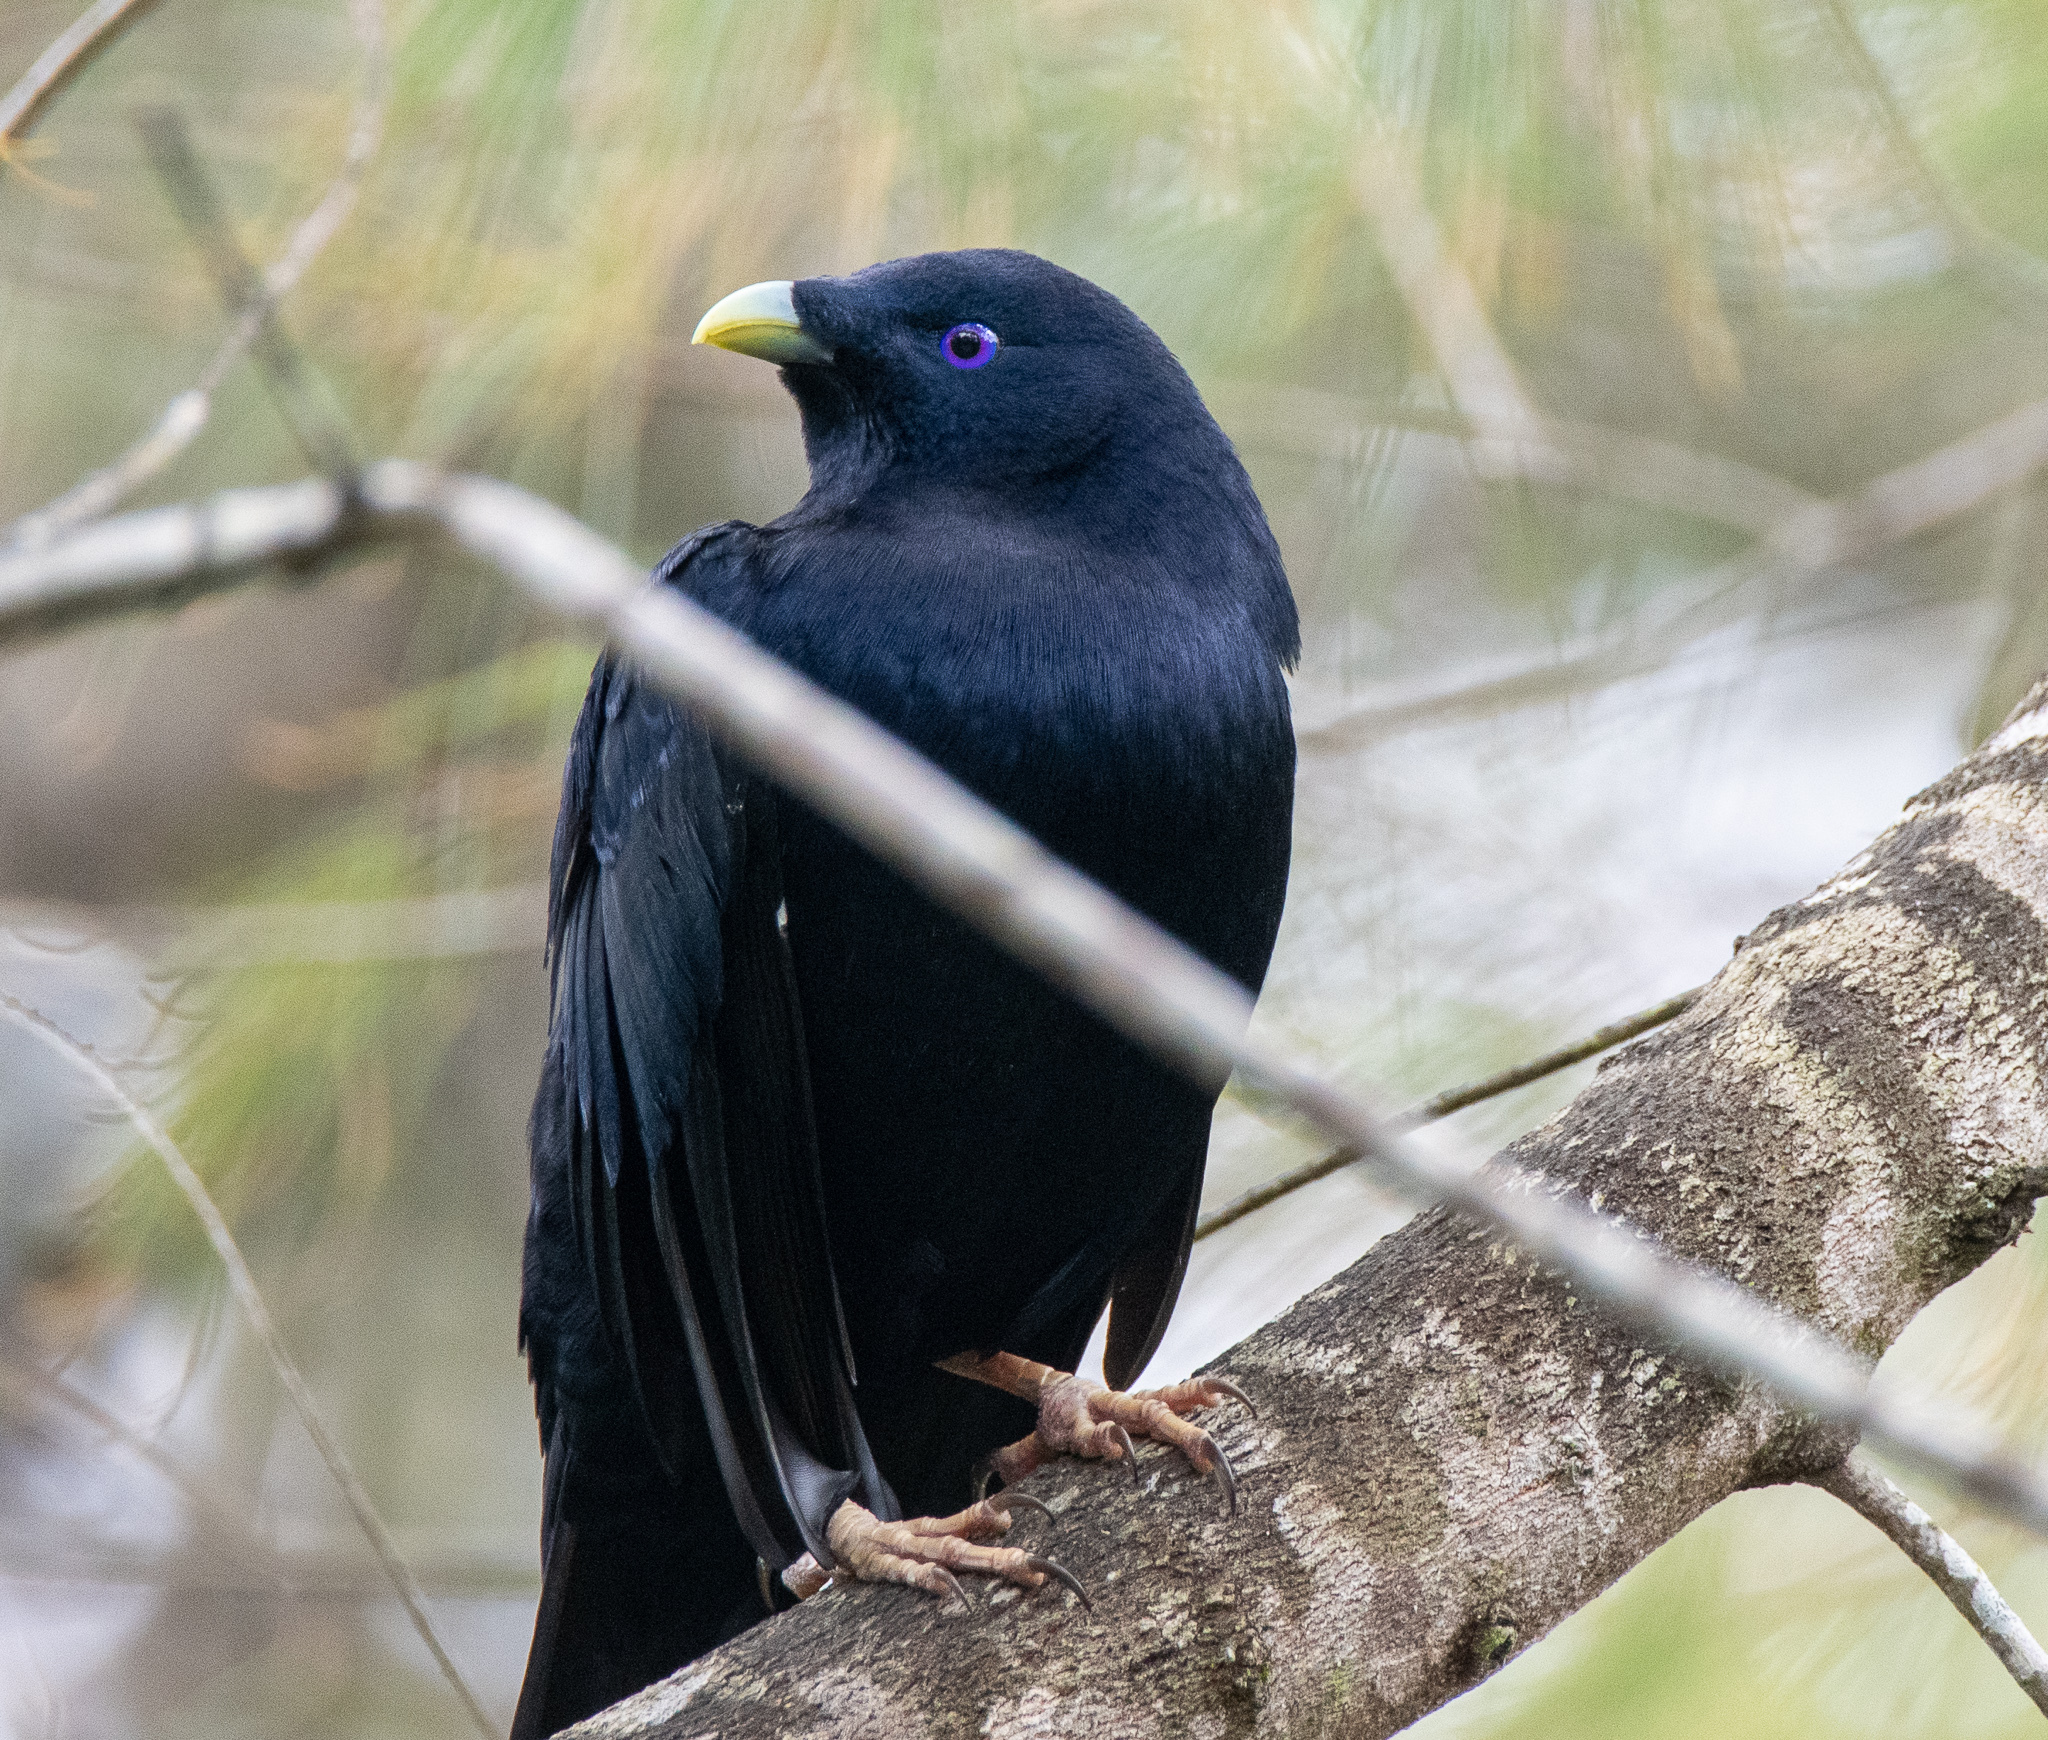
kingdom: Animalia
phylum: Chordata
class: Aves
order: Passeriformes
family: Ptilonorhynchidae
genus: Ptilonorhynchus
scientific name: Ptilonorhynchus violaceus
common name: Satin bowerbird
